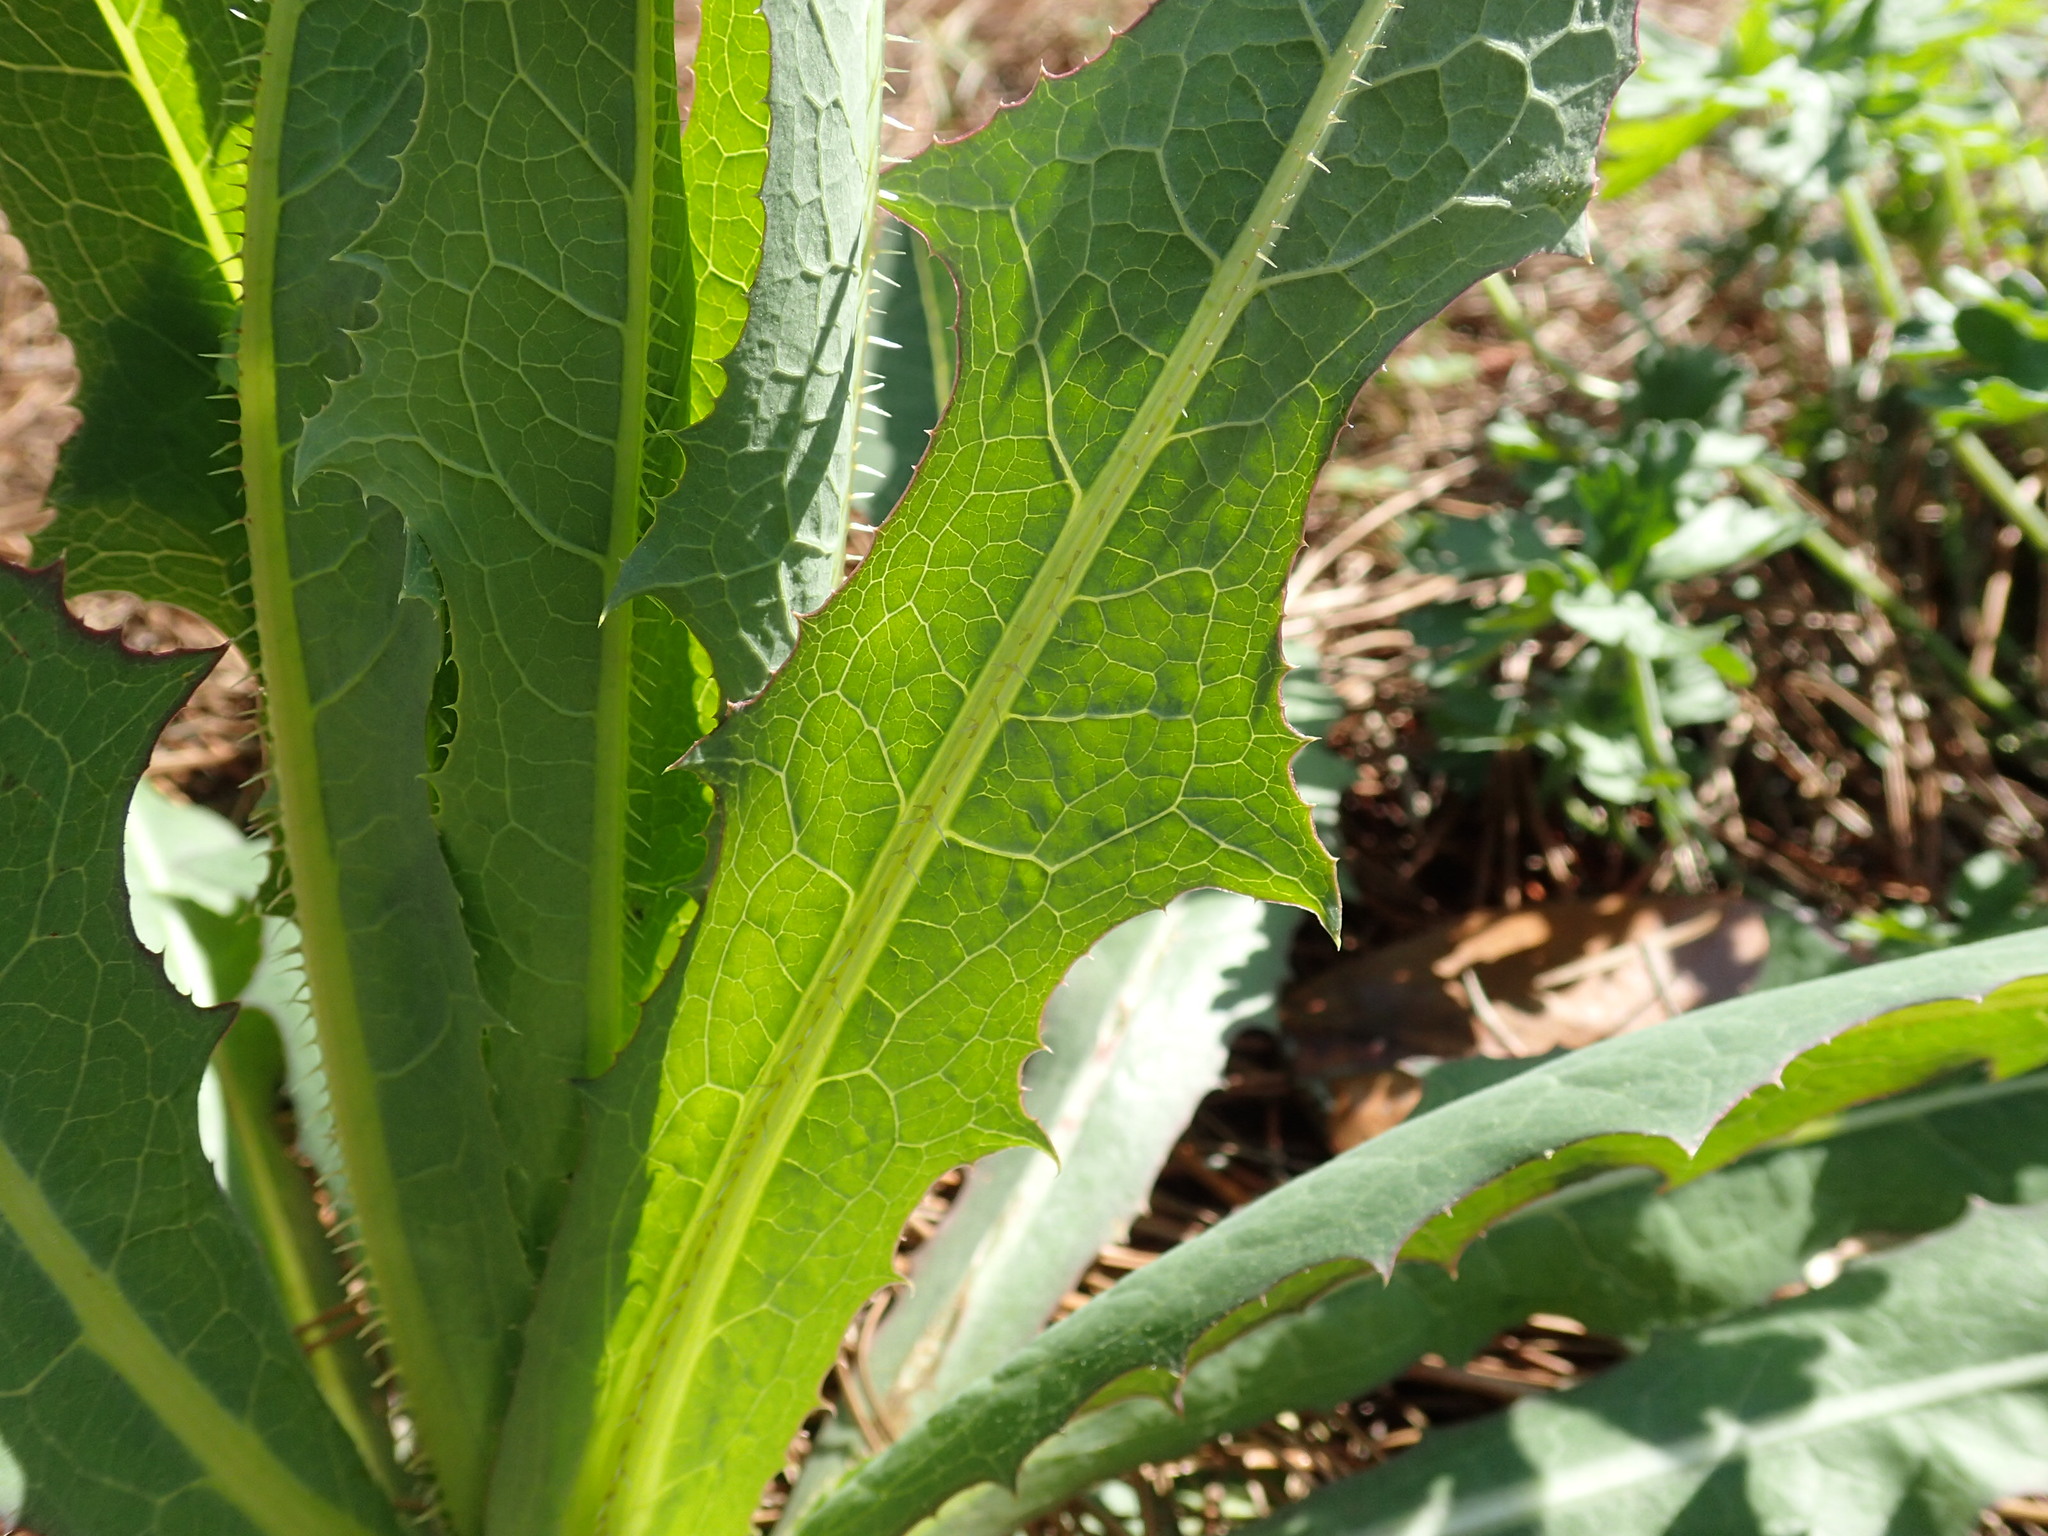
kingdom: Plantae
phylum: Tracheophyta
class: Magnoliopsida
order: Asterales
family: Asteraceae
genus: Lactuca
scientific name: Lactuca serriola
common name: Prickly lettuce
